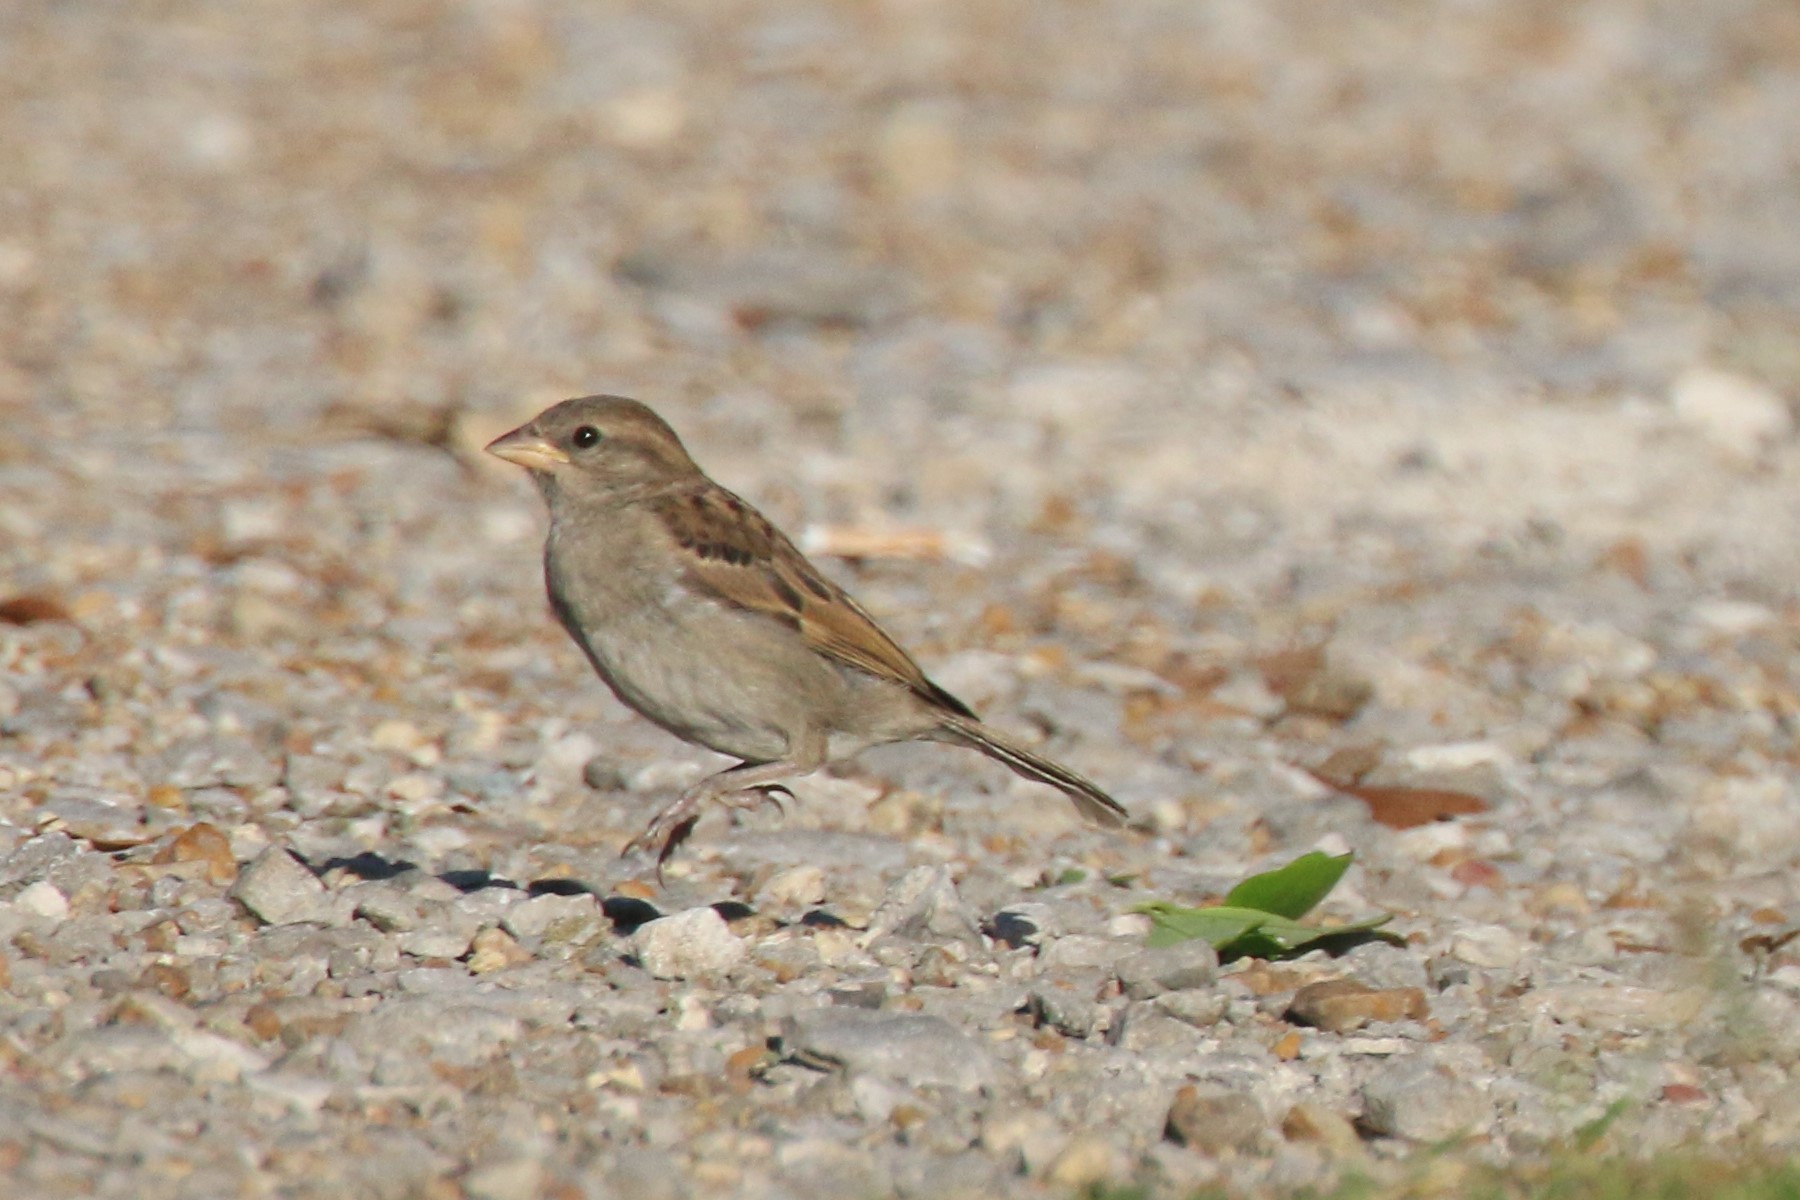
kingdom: Animalia
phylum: Chordata
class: Aves
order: Passeriformes
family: Passeridae
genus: Passer
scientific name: Passer domesticus
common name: House sparrow
